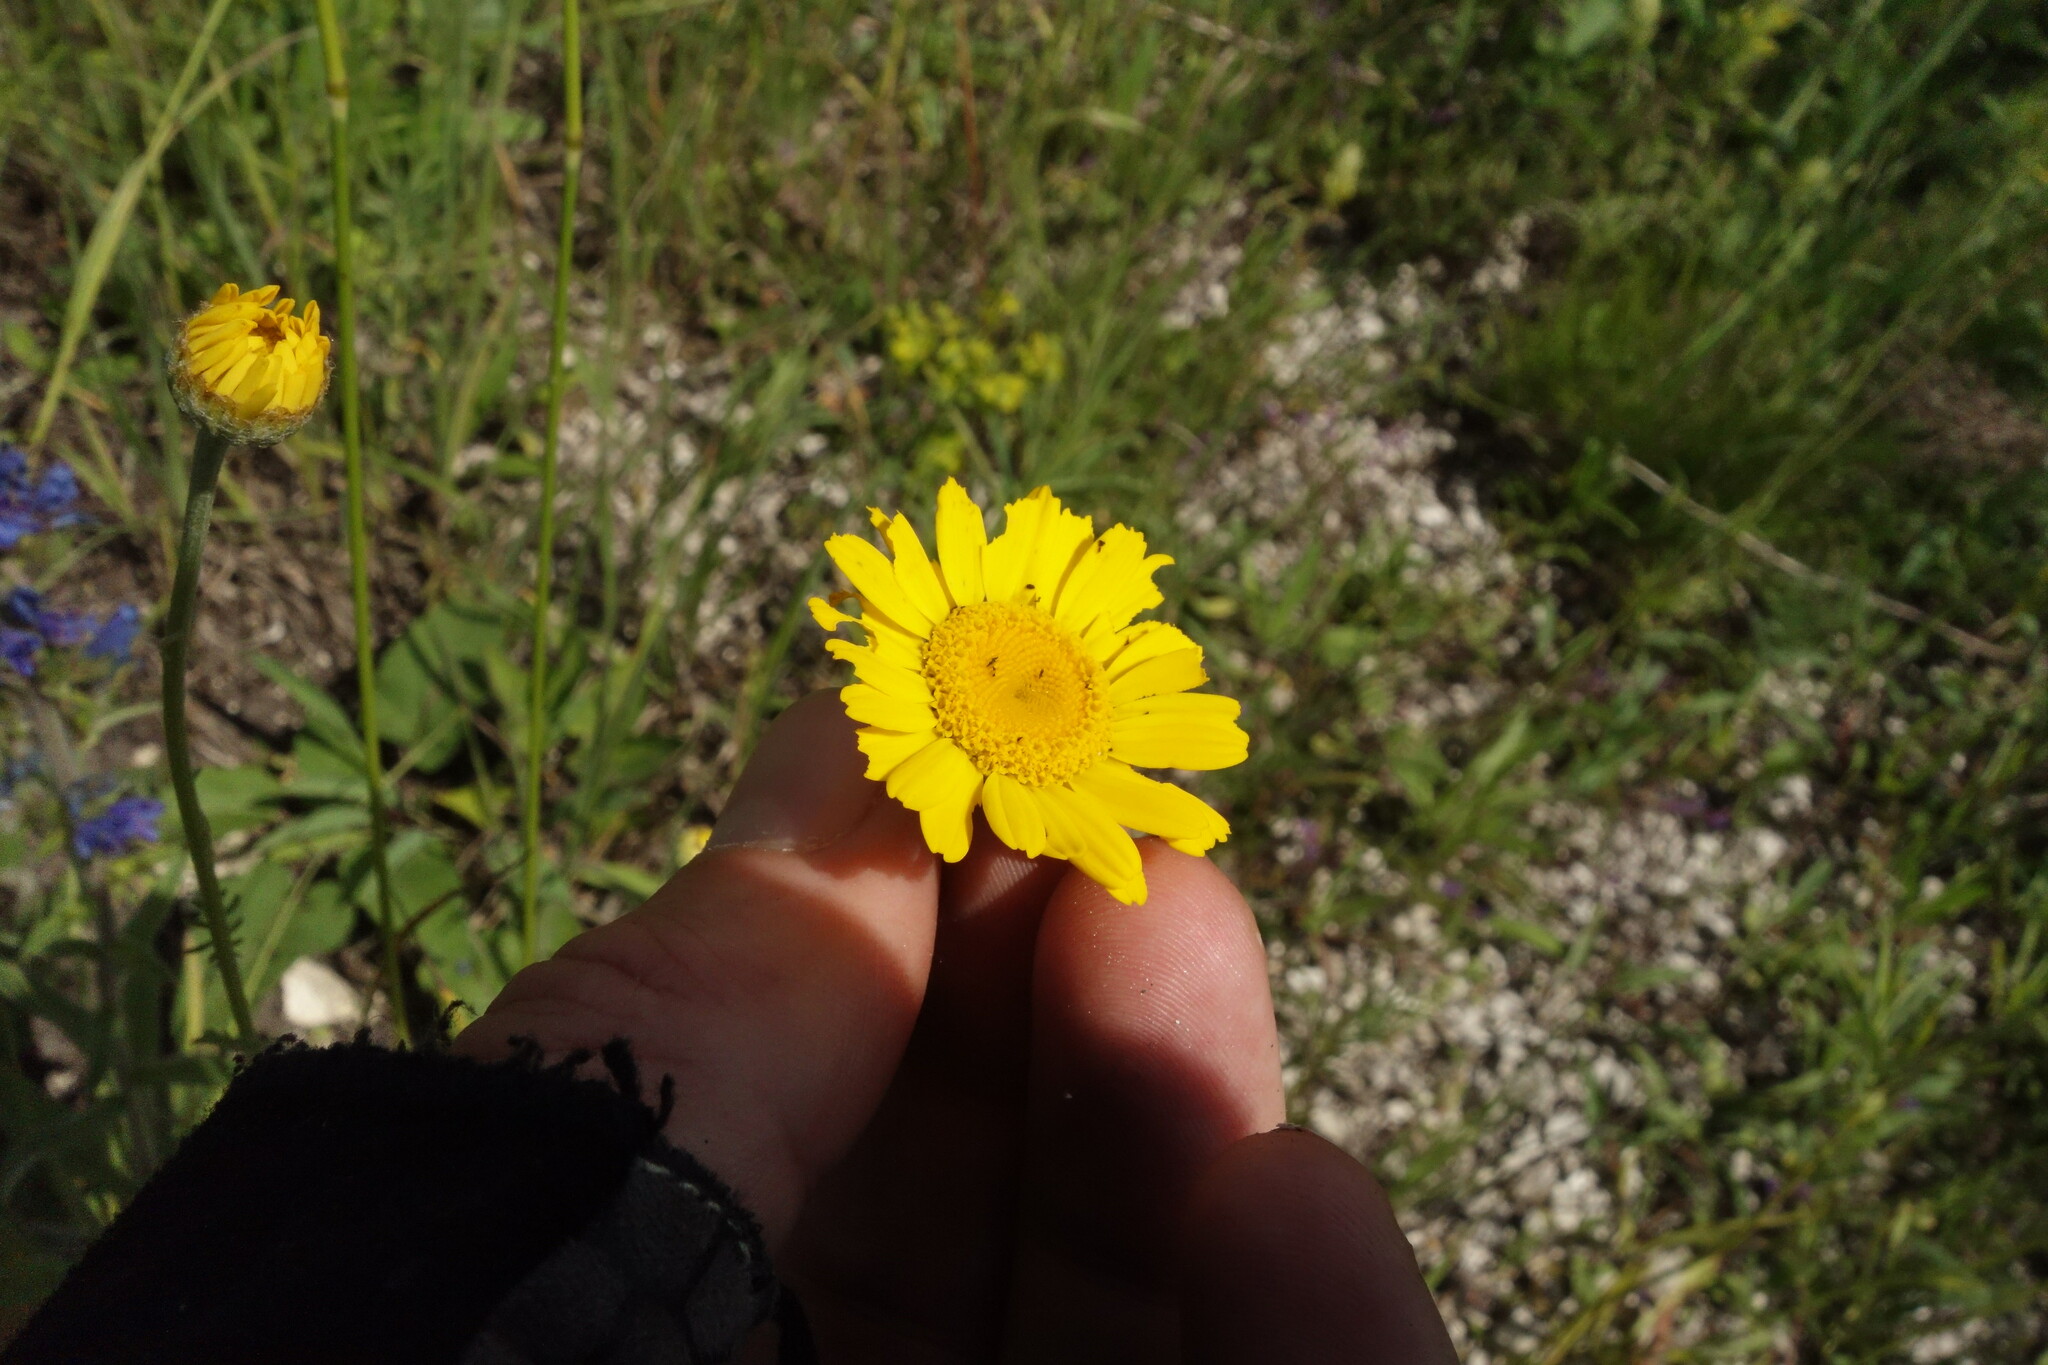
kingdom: Plantae
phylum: Tracheophyta
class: Magnoliopsida
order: Asterales
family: Asteraceae
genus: Cota
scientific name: Cota tinctoria
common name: Golden chamomile
